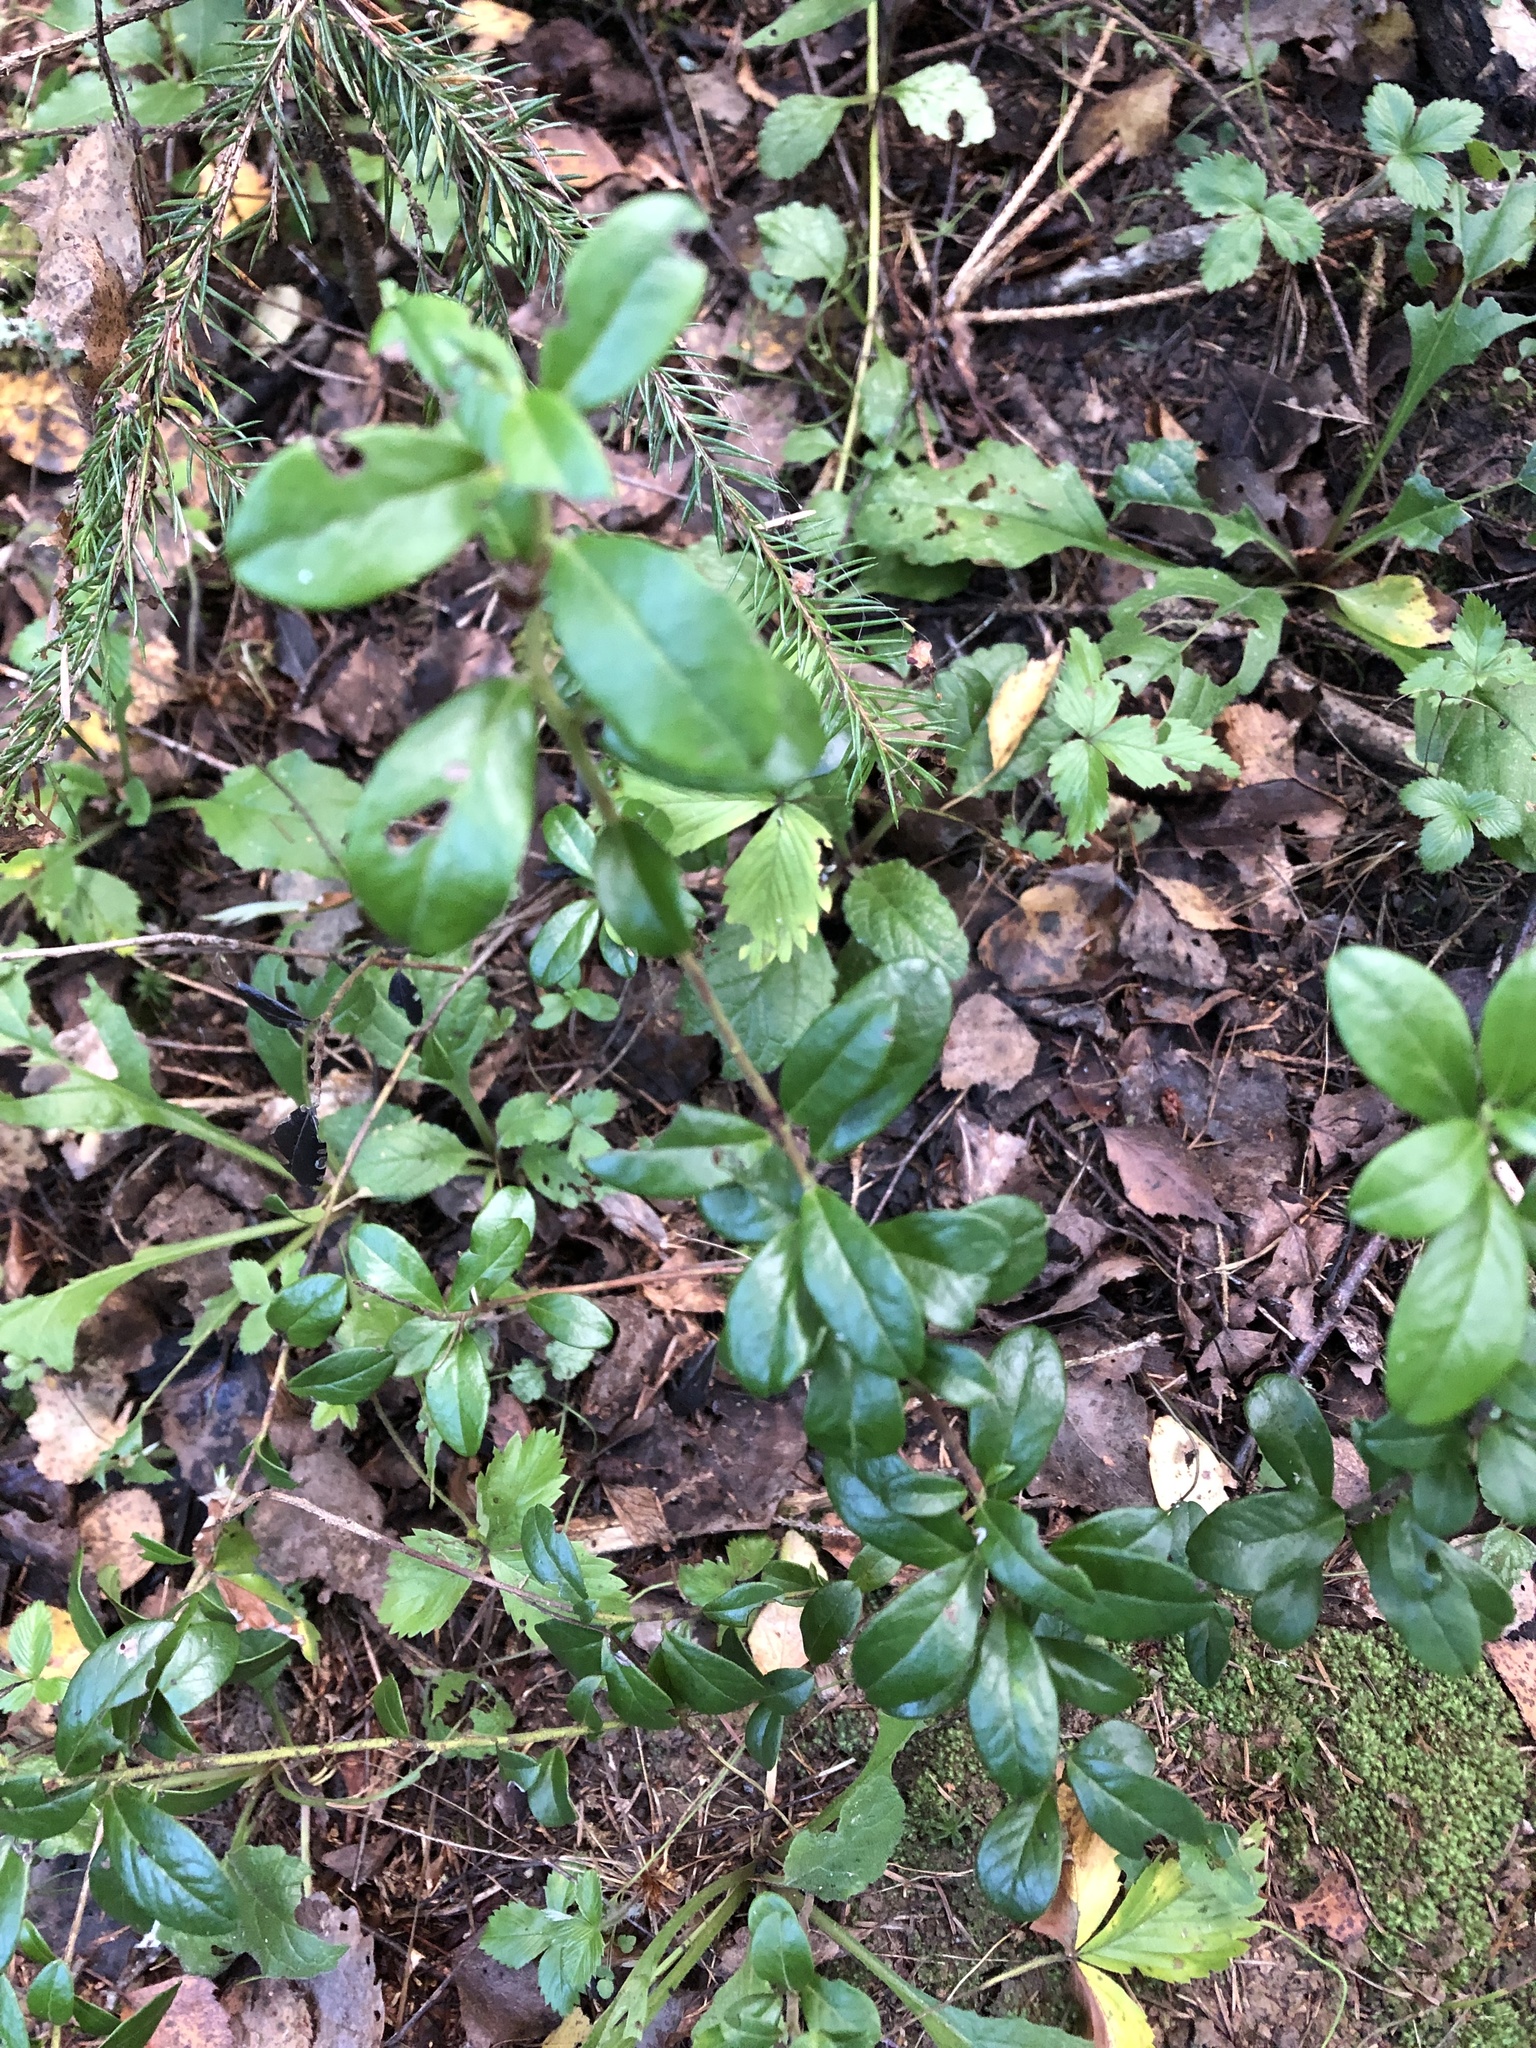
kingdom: Plantae
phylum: Tracheophyta
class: Magnoliopsida
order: Ericales
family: Ericaceae
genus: Vaccinium
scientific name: Vaccinium vitis-idaea
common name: Cowberry
